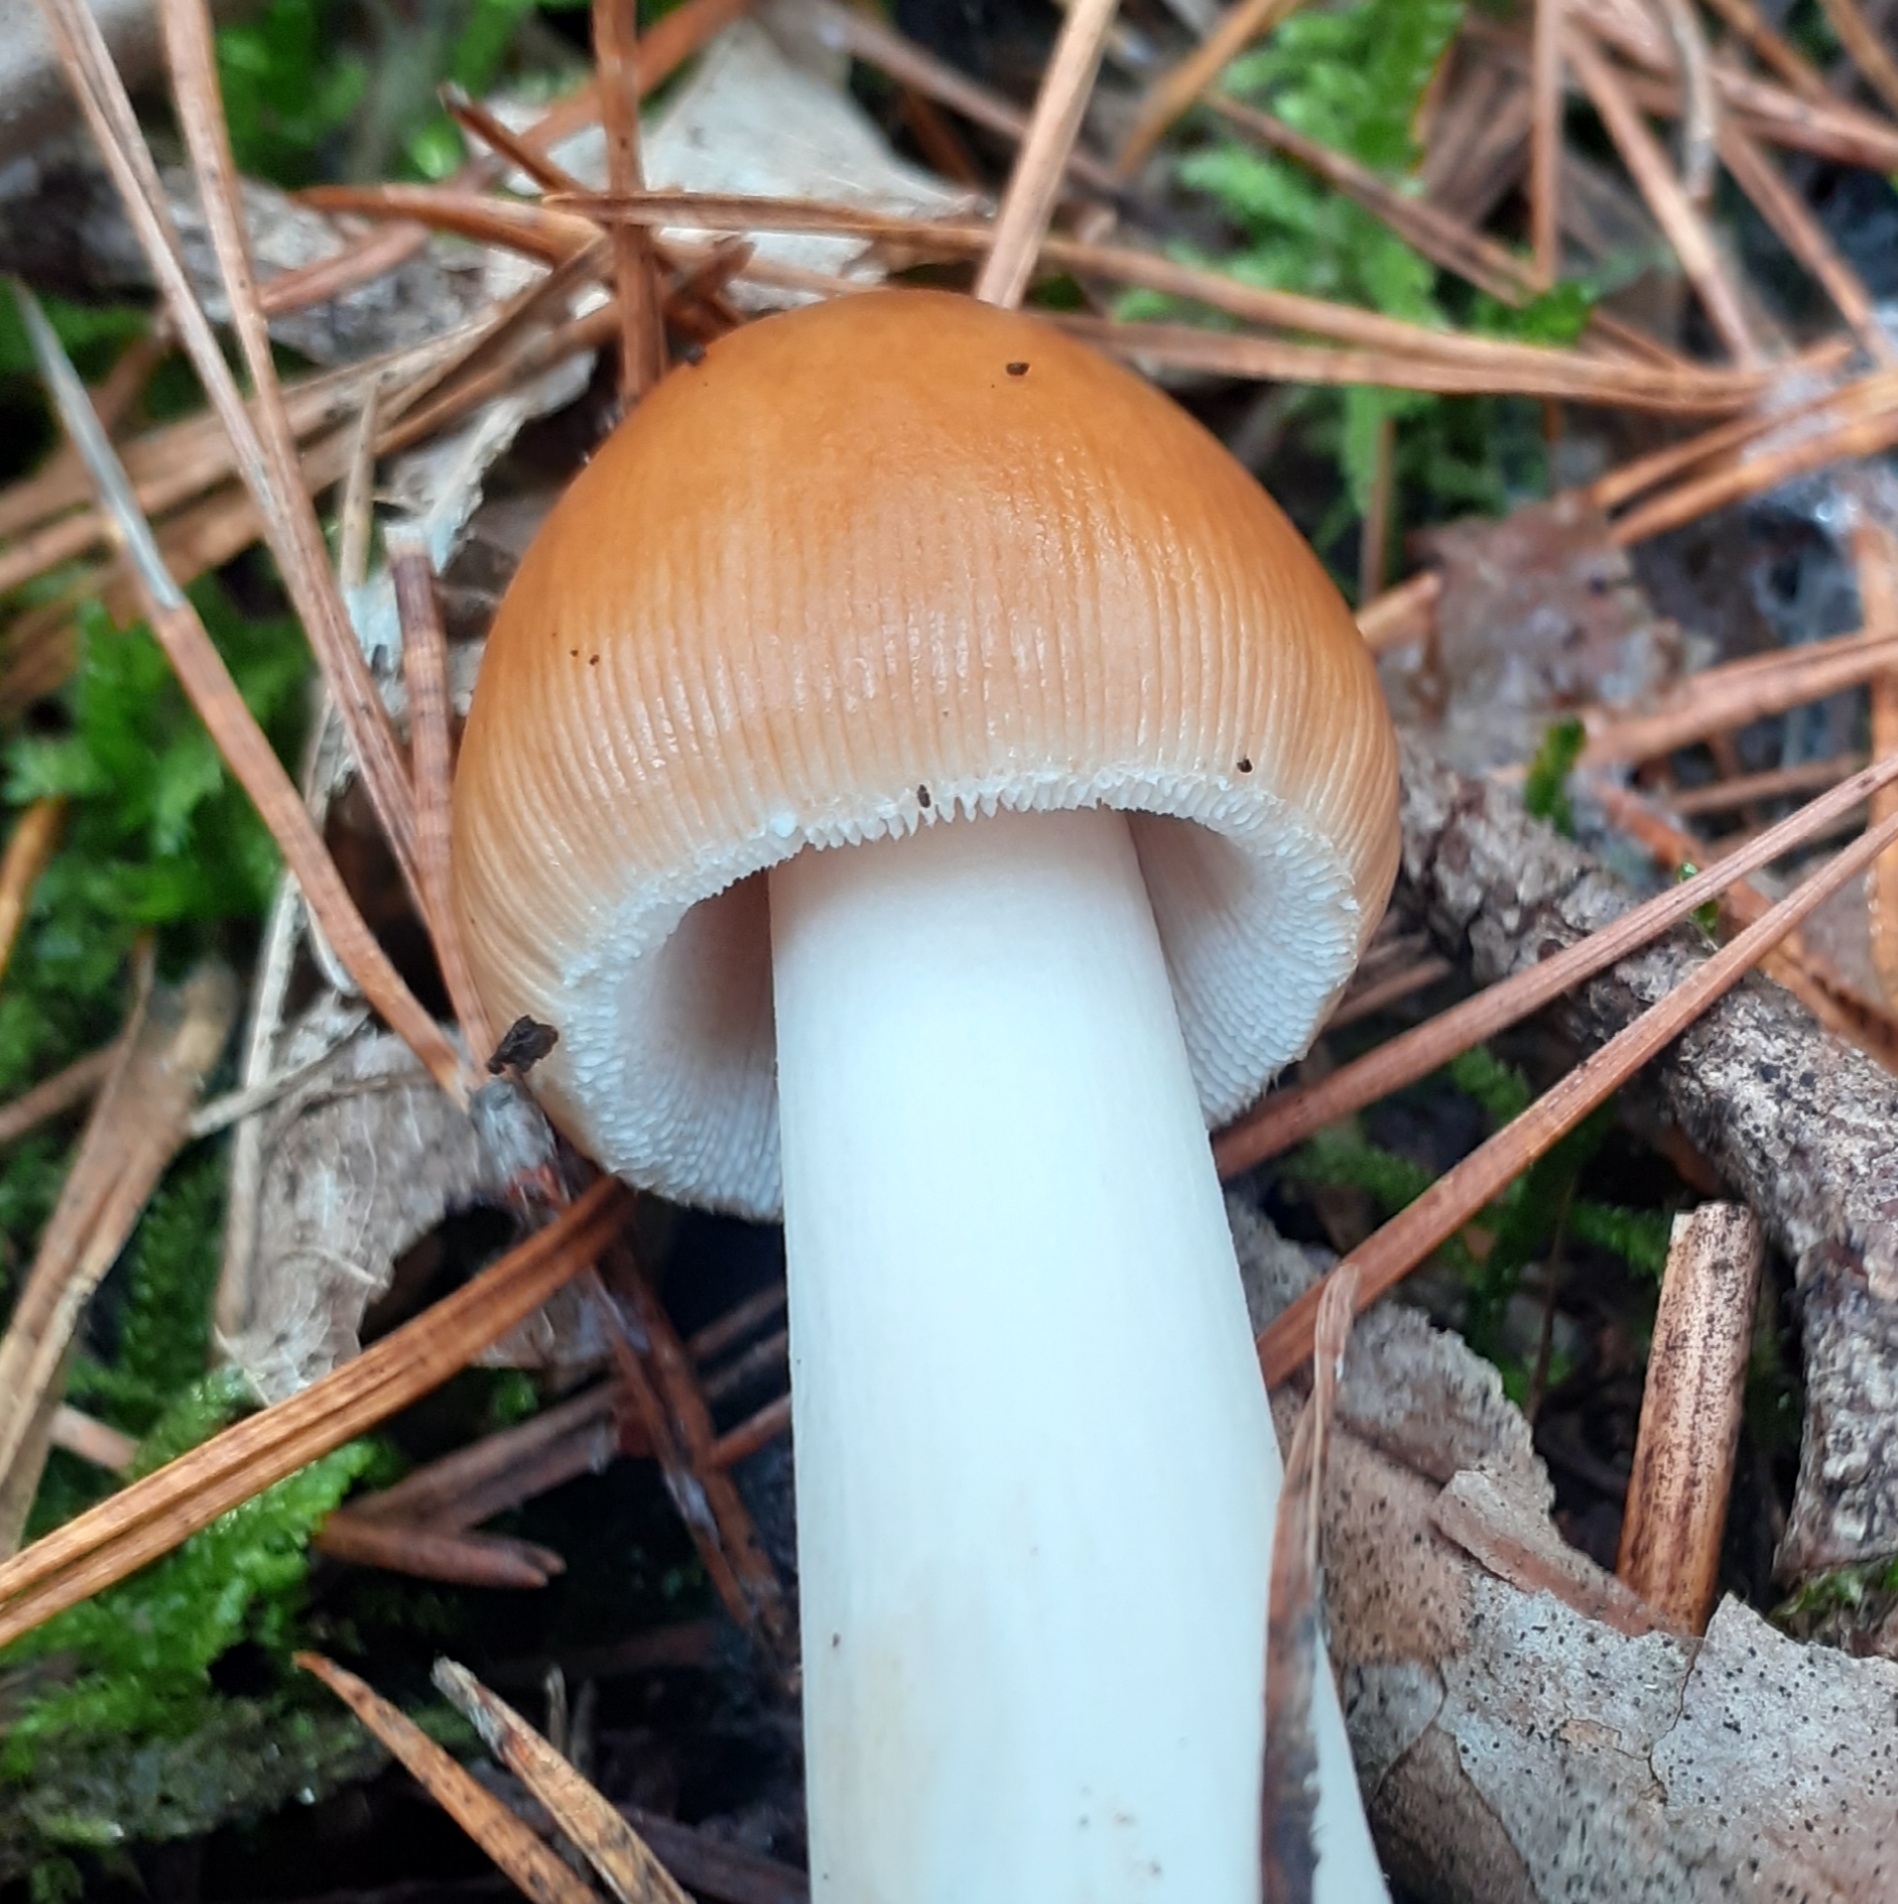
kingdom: Fungi
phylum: Basidiomycota
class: Agaricomycetes
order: Agaricales
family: Amanitaceae
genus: Amanita
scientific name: Amanita fulva
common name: Tawny grisette
